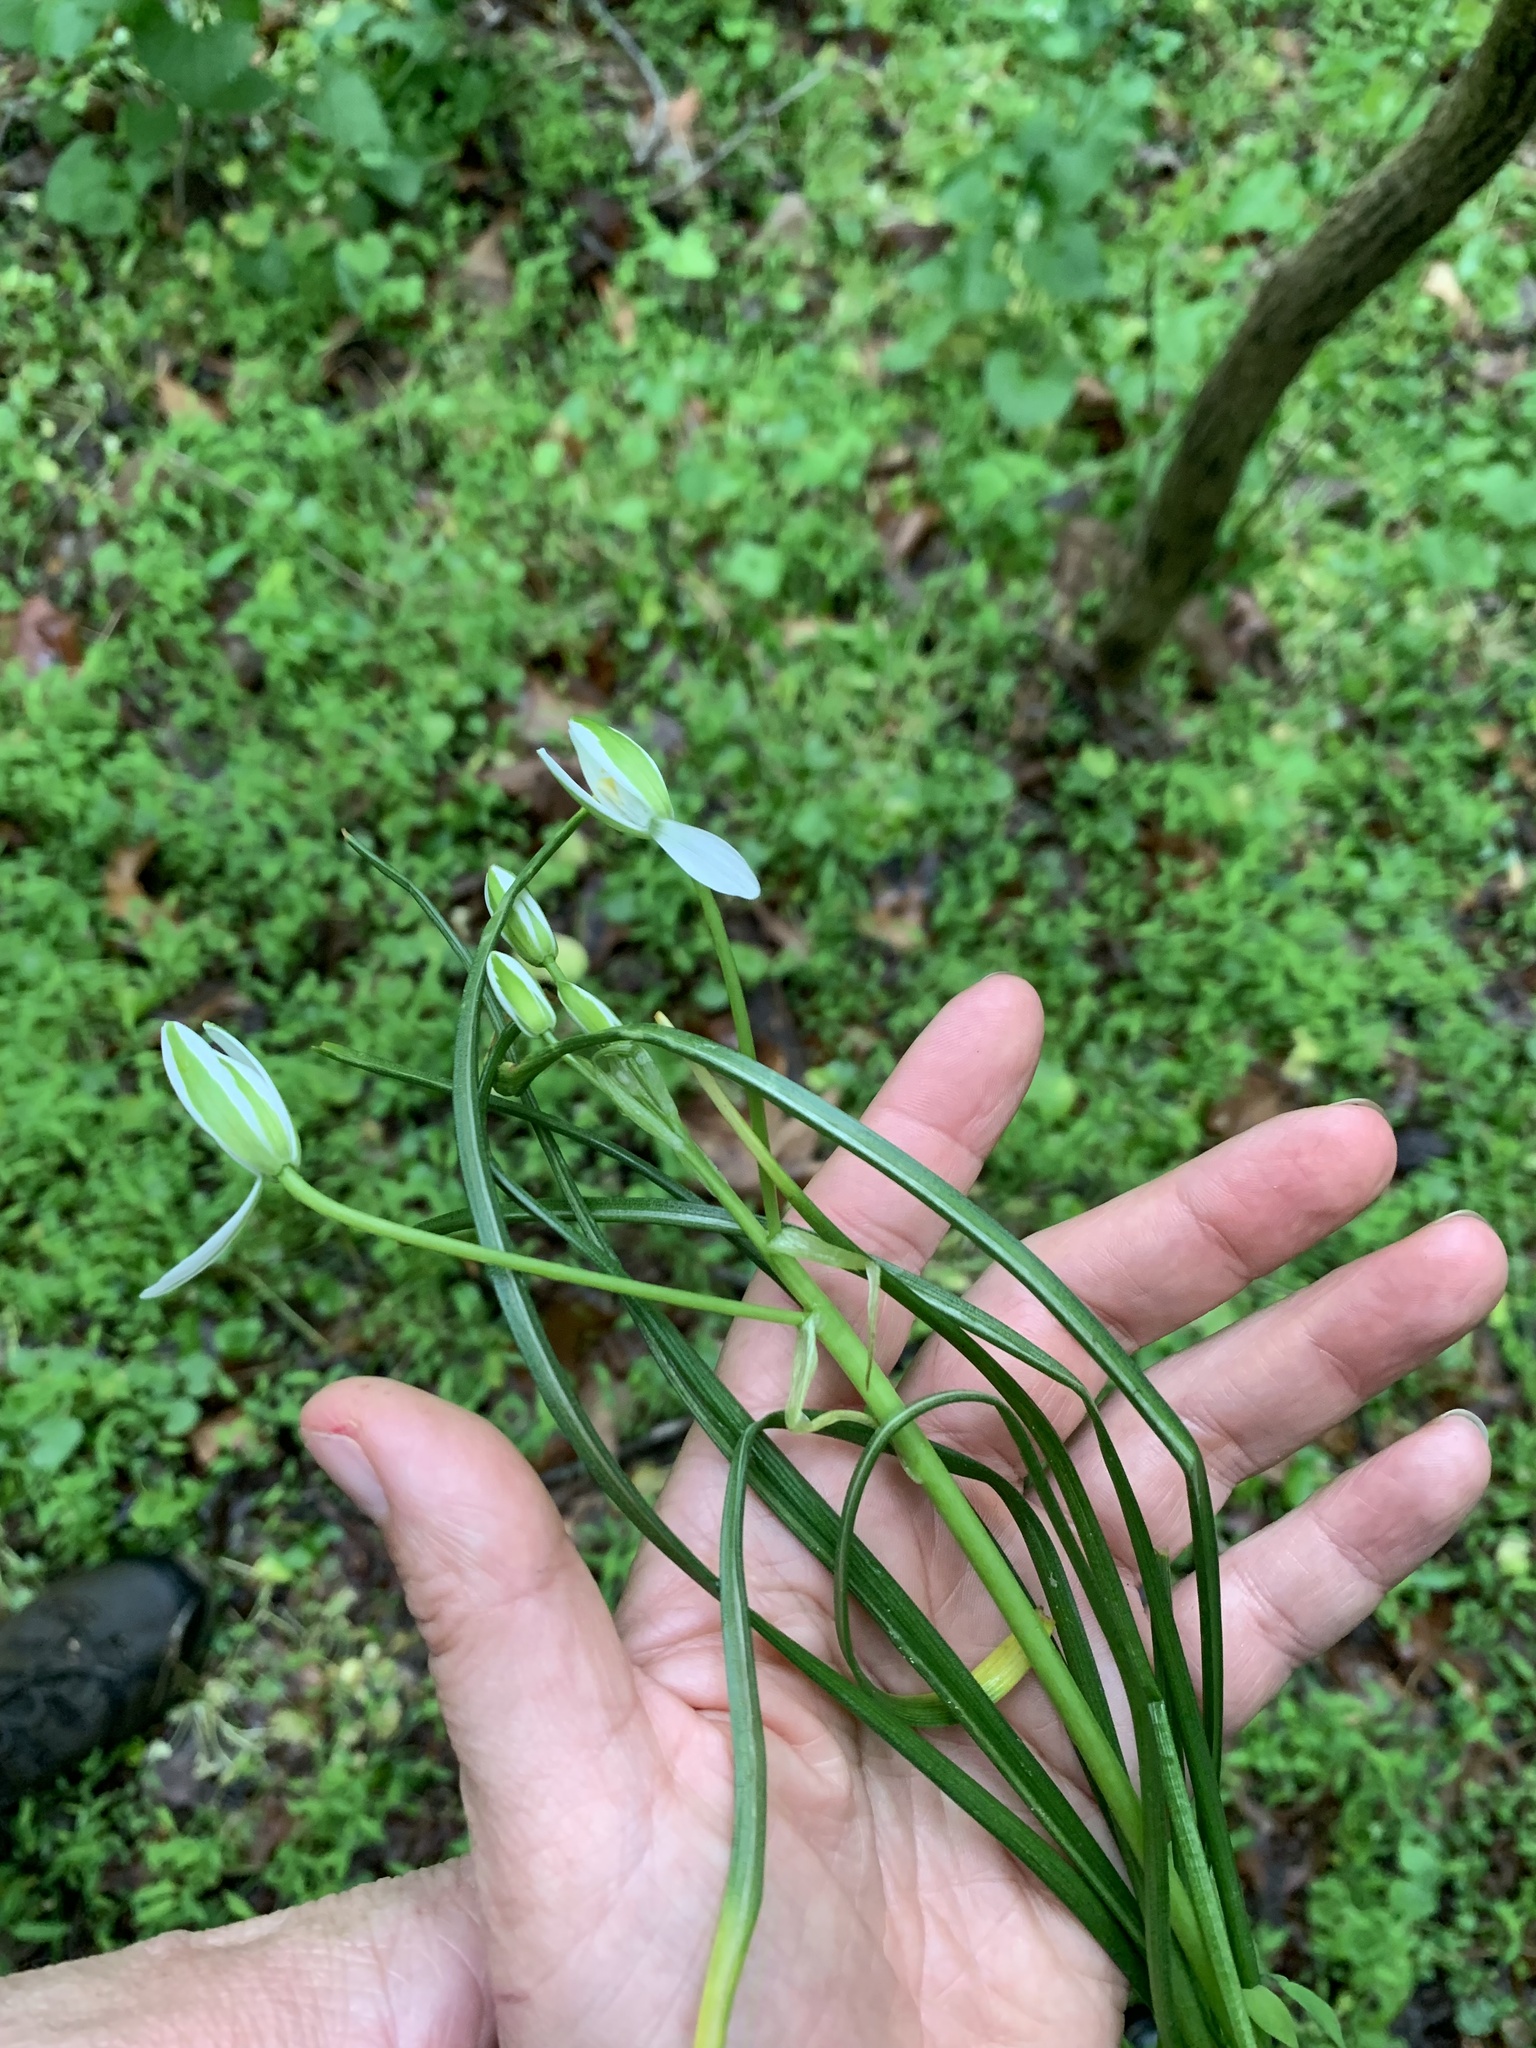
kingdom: Plantae
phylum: Tracheophyta
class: Liliopsida
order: Asparagales
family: Asparagaceae
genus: Ornithogalum
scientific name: Ornithogalum umbellatum
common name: Garden star-of-bethlehem
